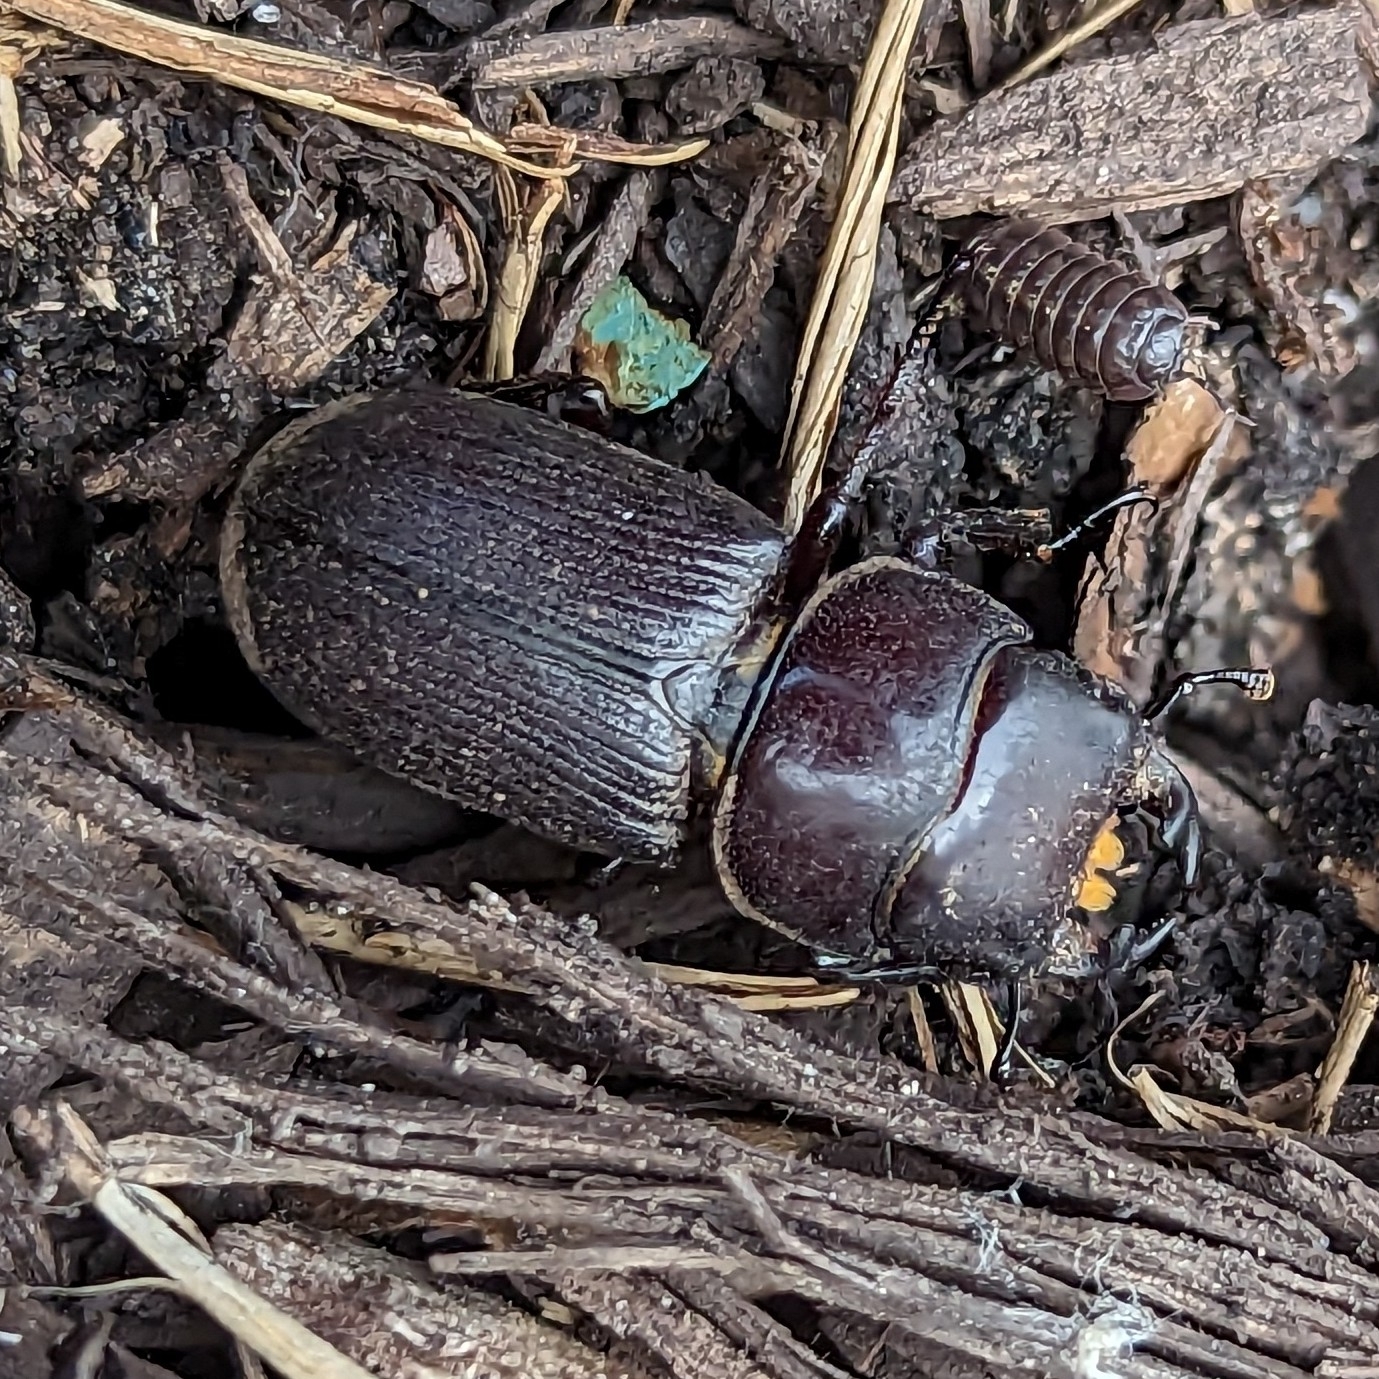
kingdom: Animalia
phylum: Arthropoda
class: Insecta
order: Coleoptera
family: Lucanidae
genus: Dorcus
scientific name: Dorcus parallelus
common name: Antelope beetle
